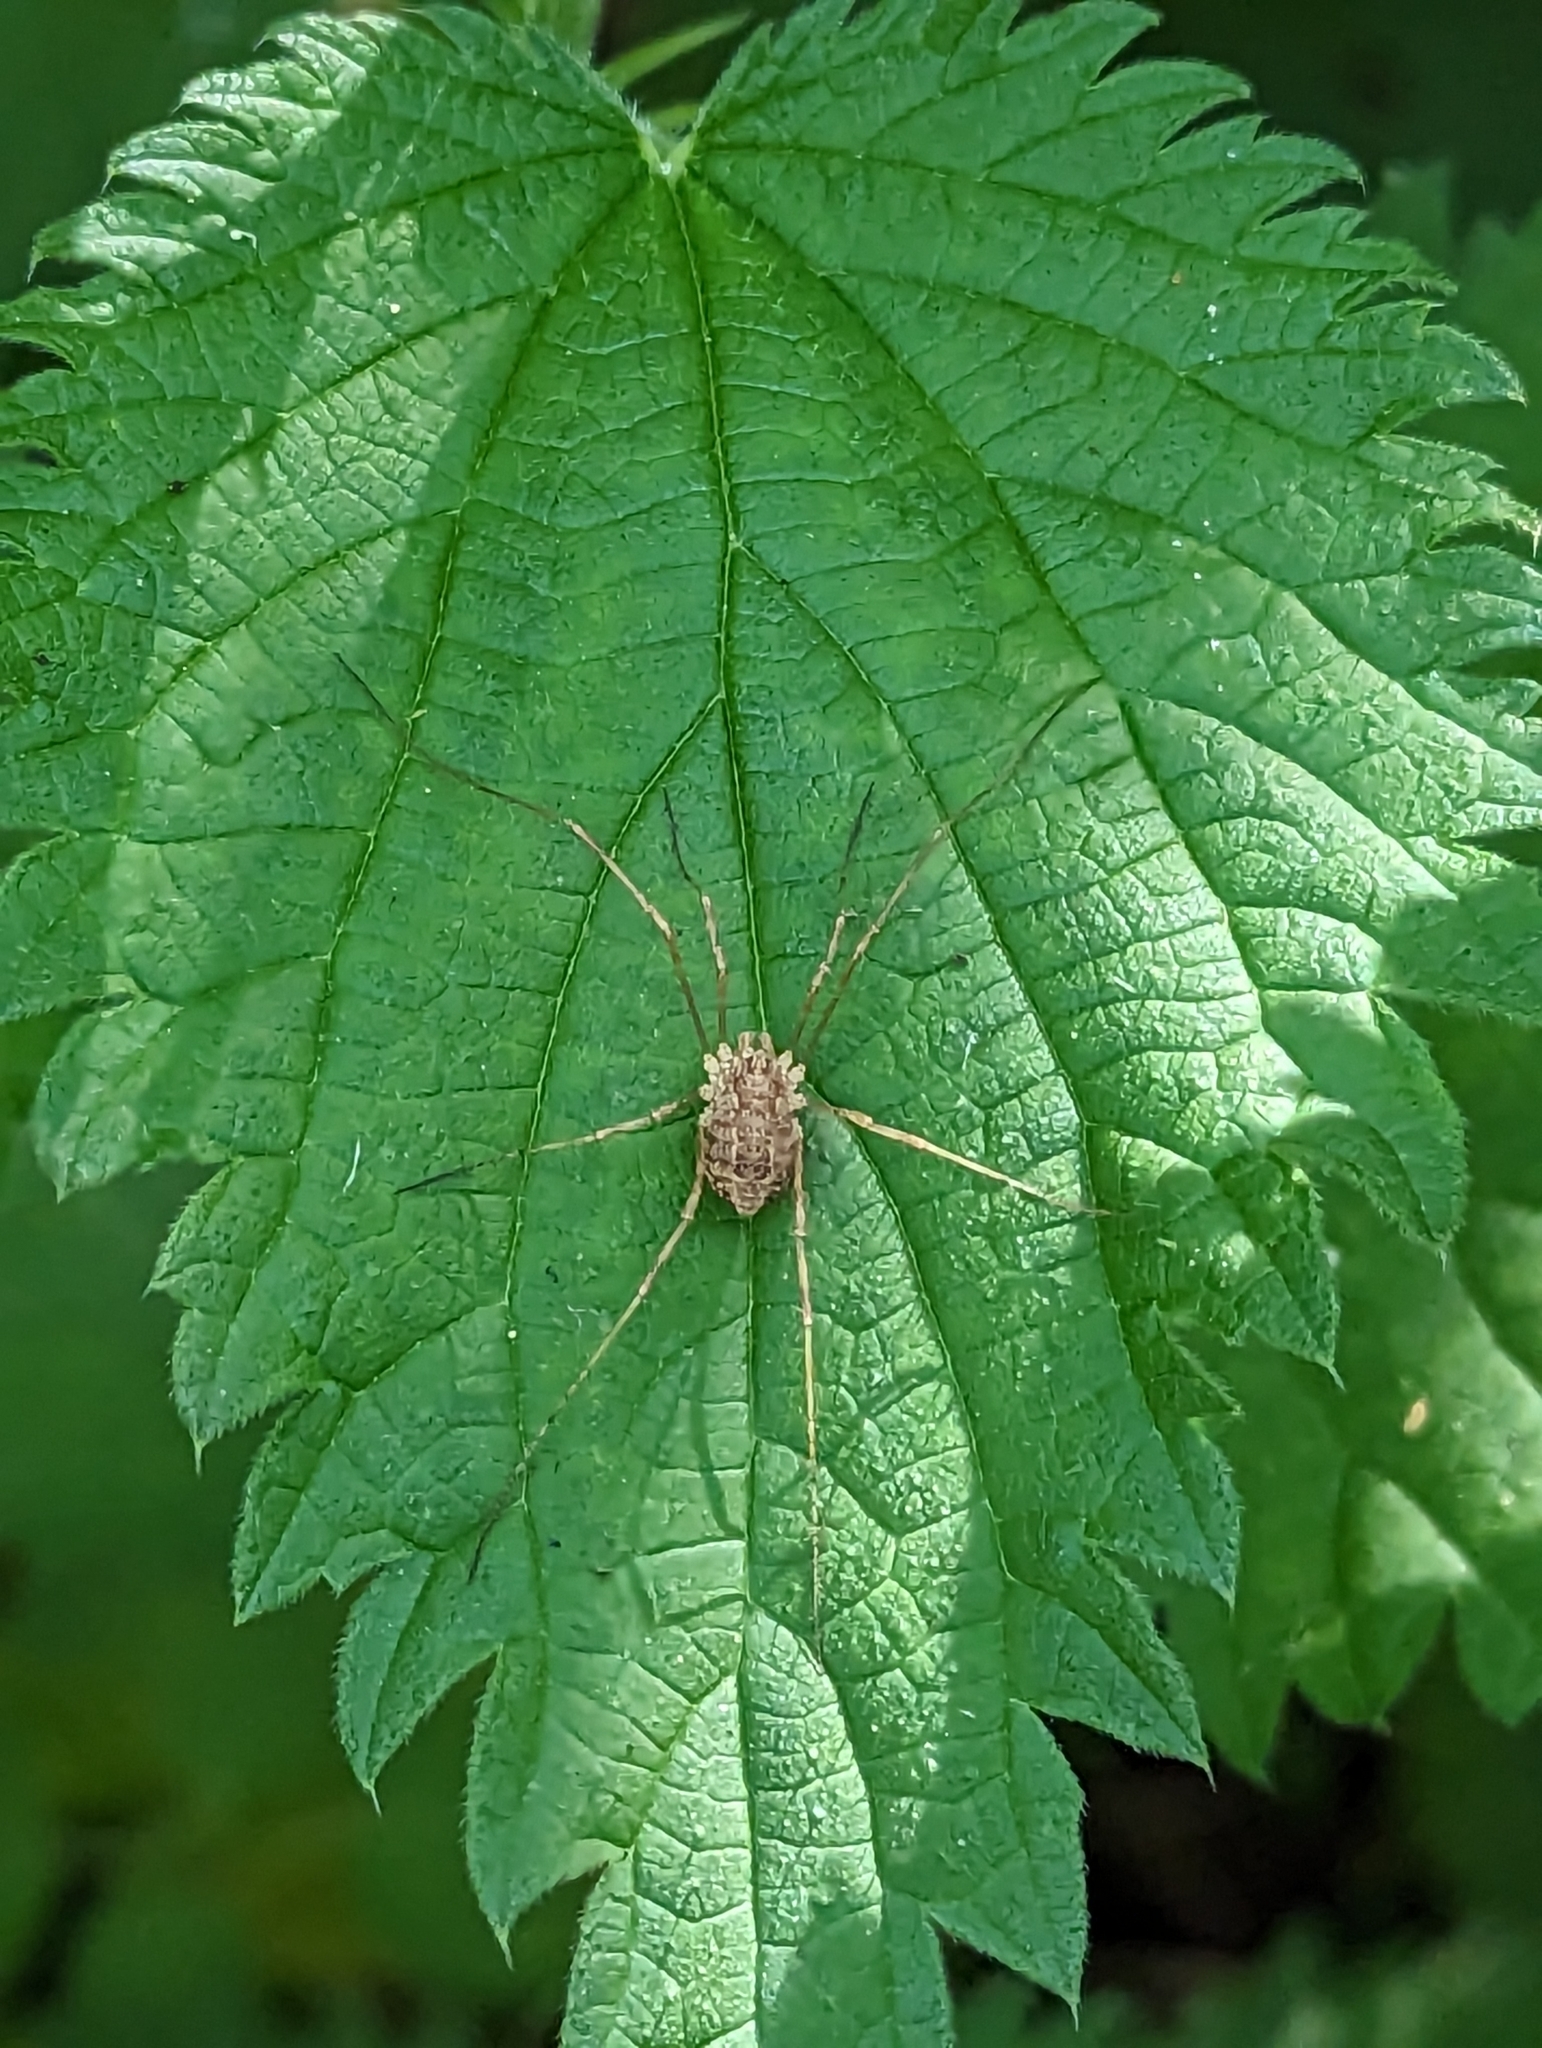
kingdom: Animalia
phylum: Arthropoda
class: Arachnida
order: Opiliones
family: Phalangiidae
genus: Rilaena
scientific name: Rilaena triangularis
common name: Spring harvestman
